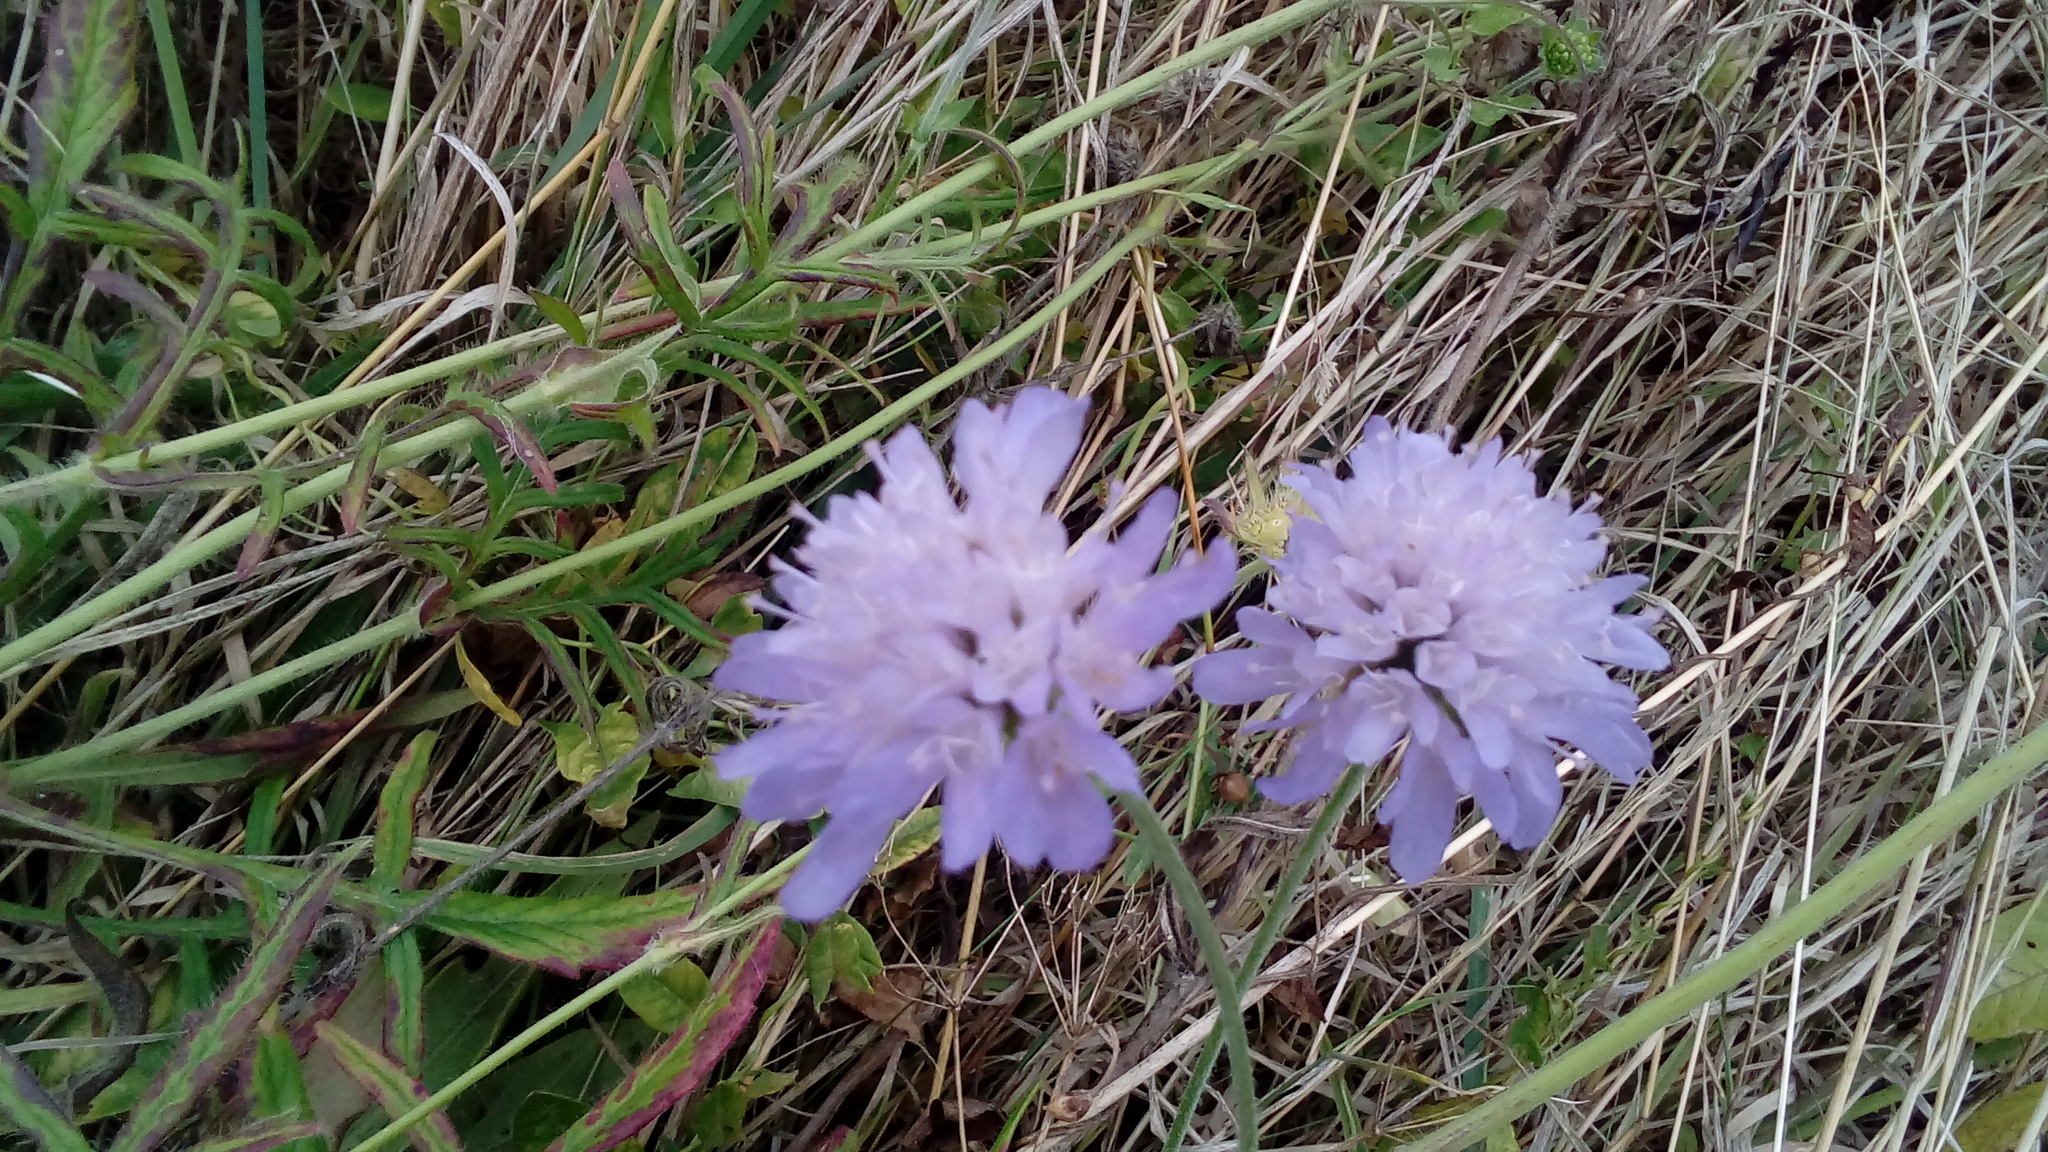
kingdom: Plantae
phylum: Tracheophyta
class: Magnoliopsida
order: Dipsacales
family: Caprifoliaceae
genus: Knautia
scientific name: Knautia arvensis
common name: Field scabiosa
